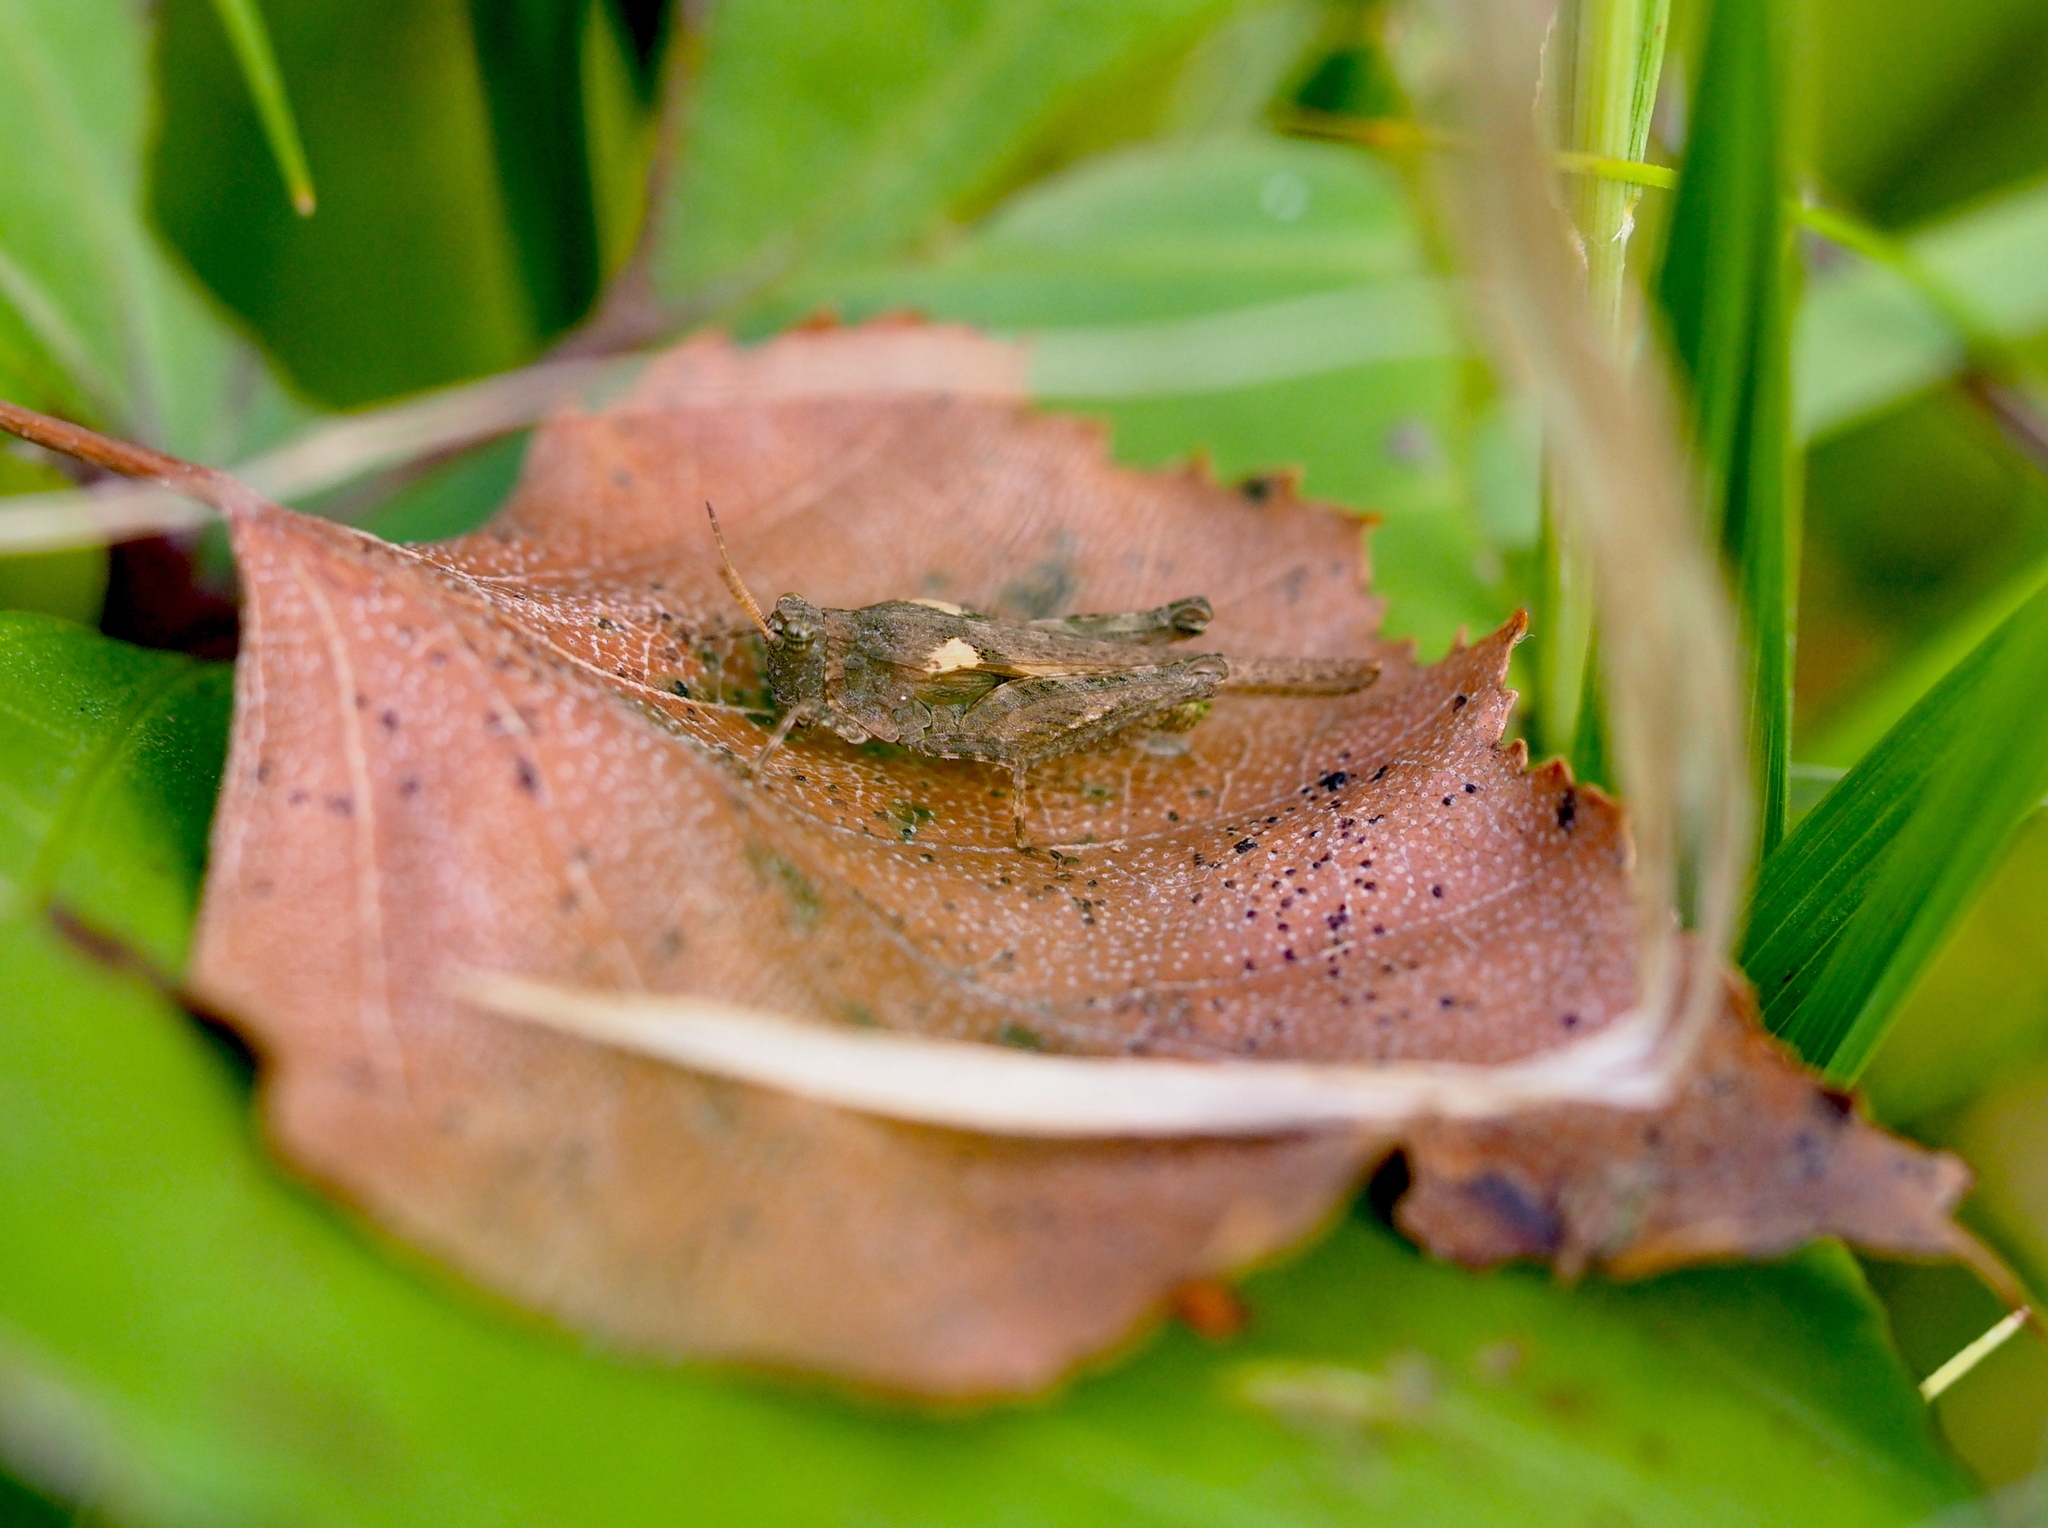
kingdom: Animalia
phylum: Arthropoda
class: Insecta
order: Orthoptera
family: Tetrigidae
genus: Tetrix
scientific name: Tetrix subulata
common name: Slender ground-hopper
